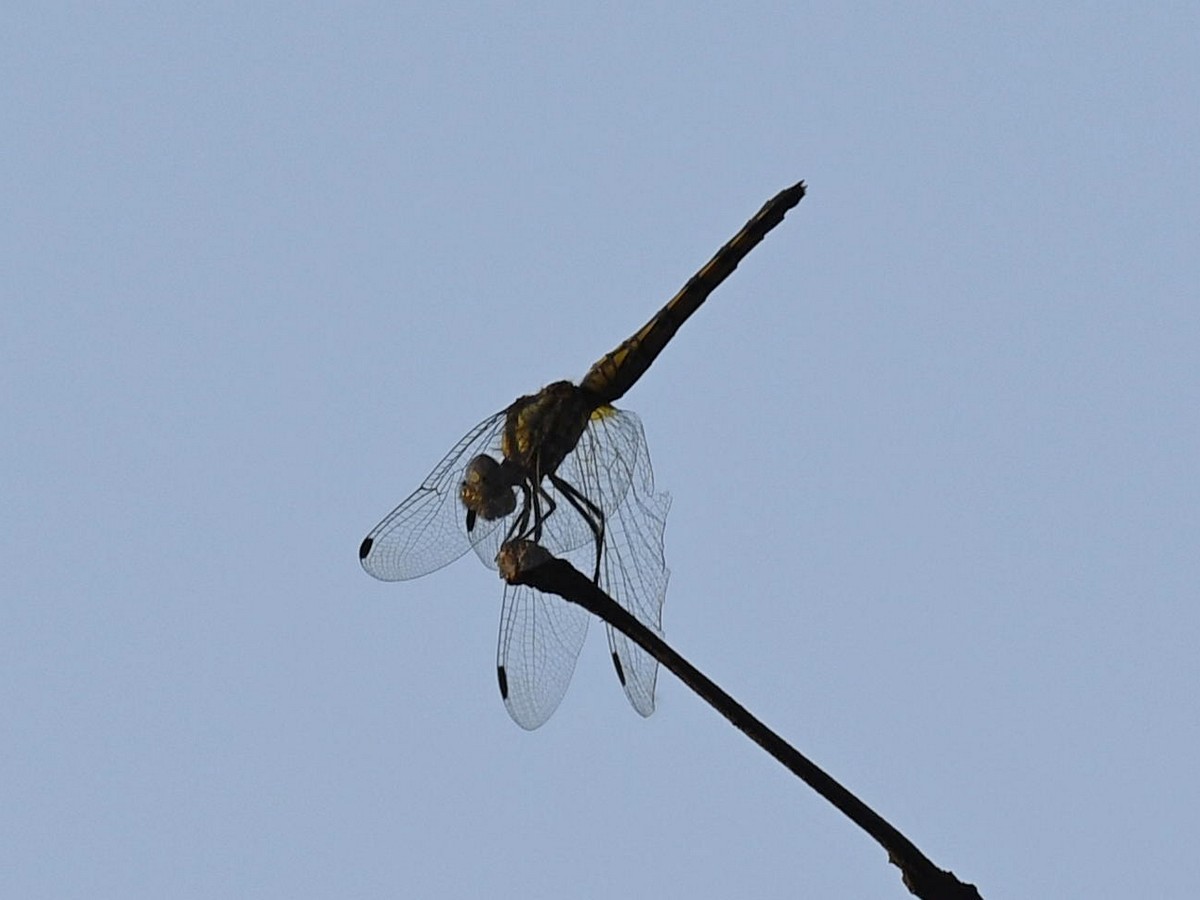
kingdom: Animalia
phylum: Arthropoda
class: Insecta
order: Odonata
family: Libellulidae
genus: Potamarcha
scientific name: Potamarcha congener
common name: Blue chaser
